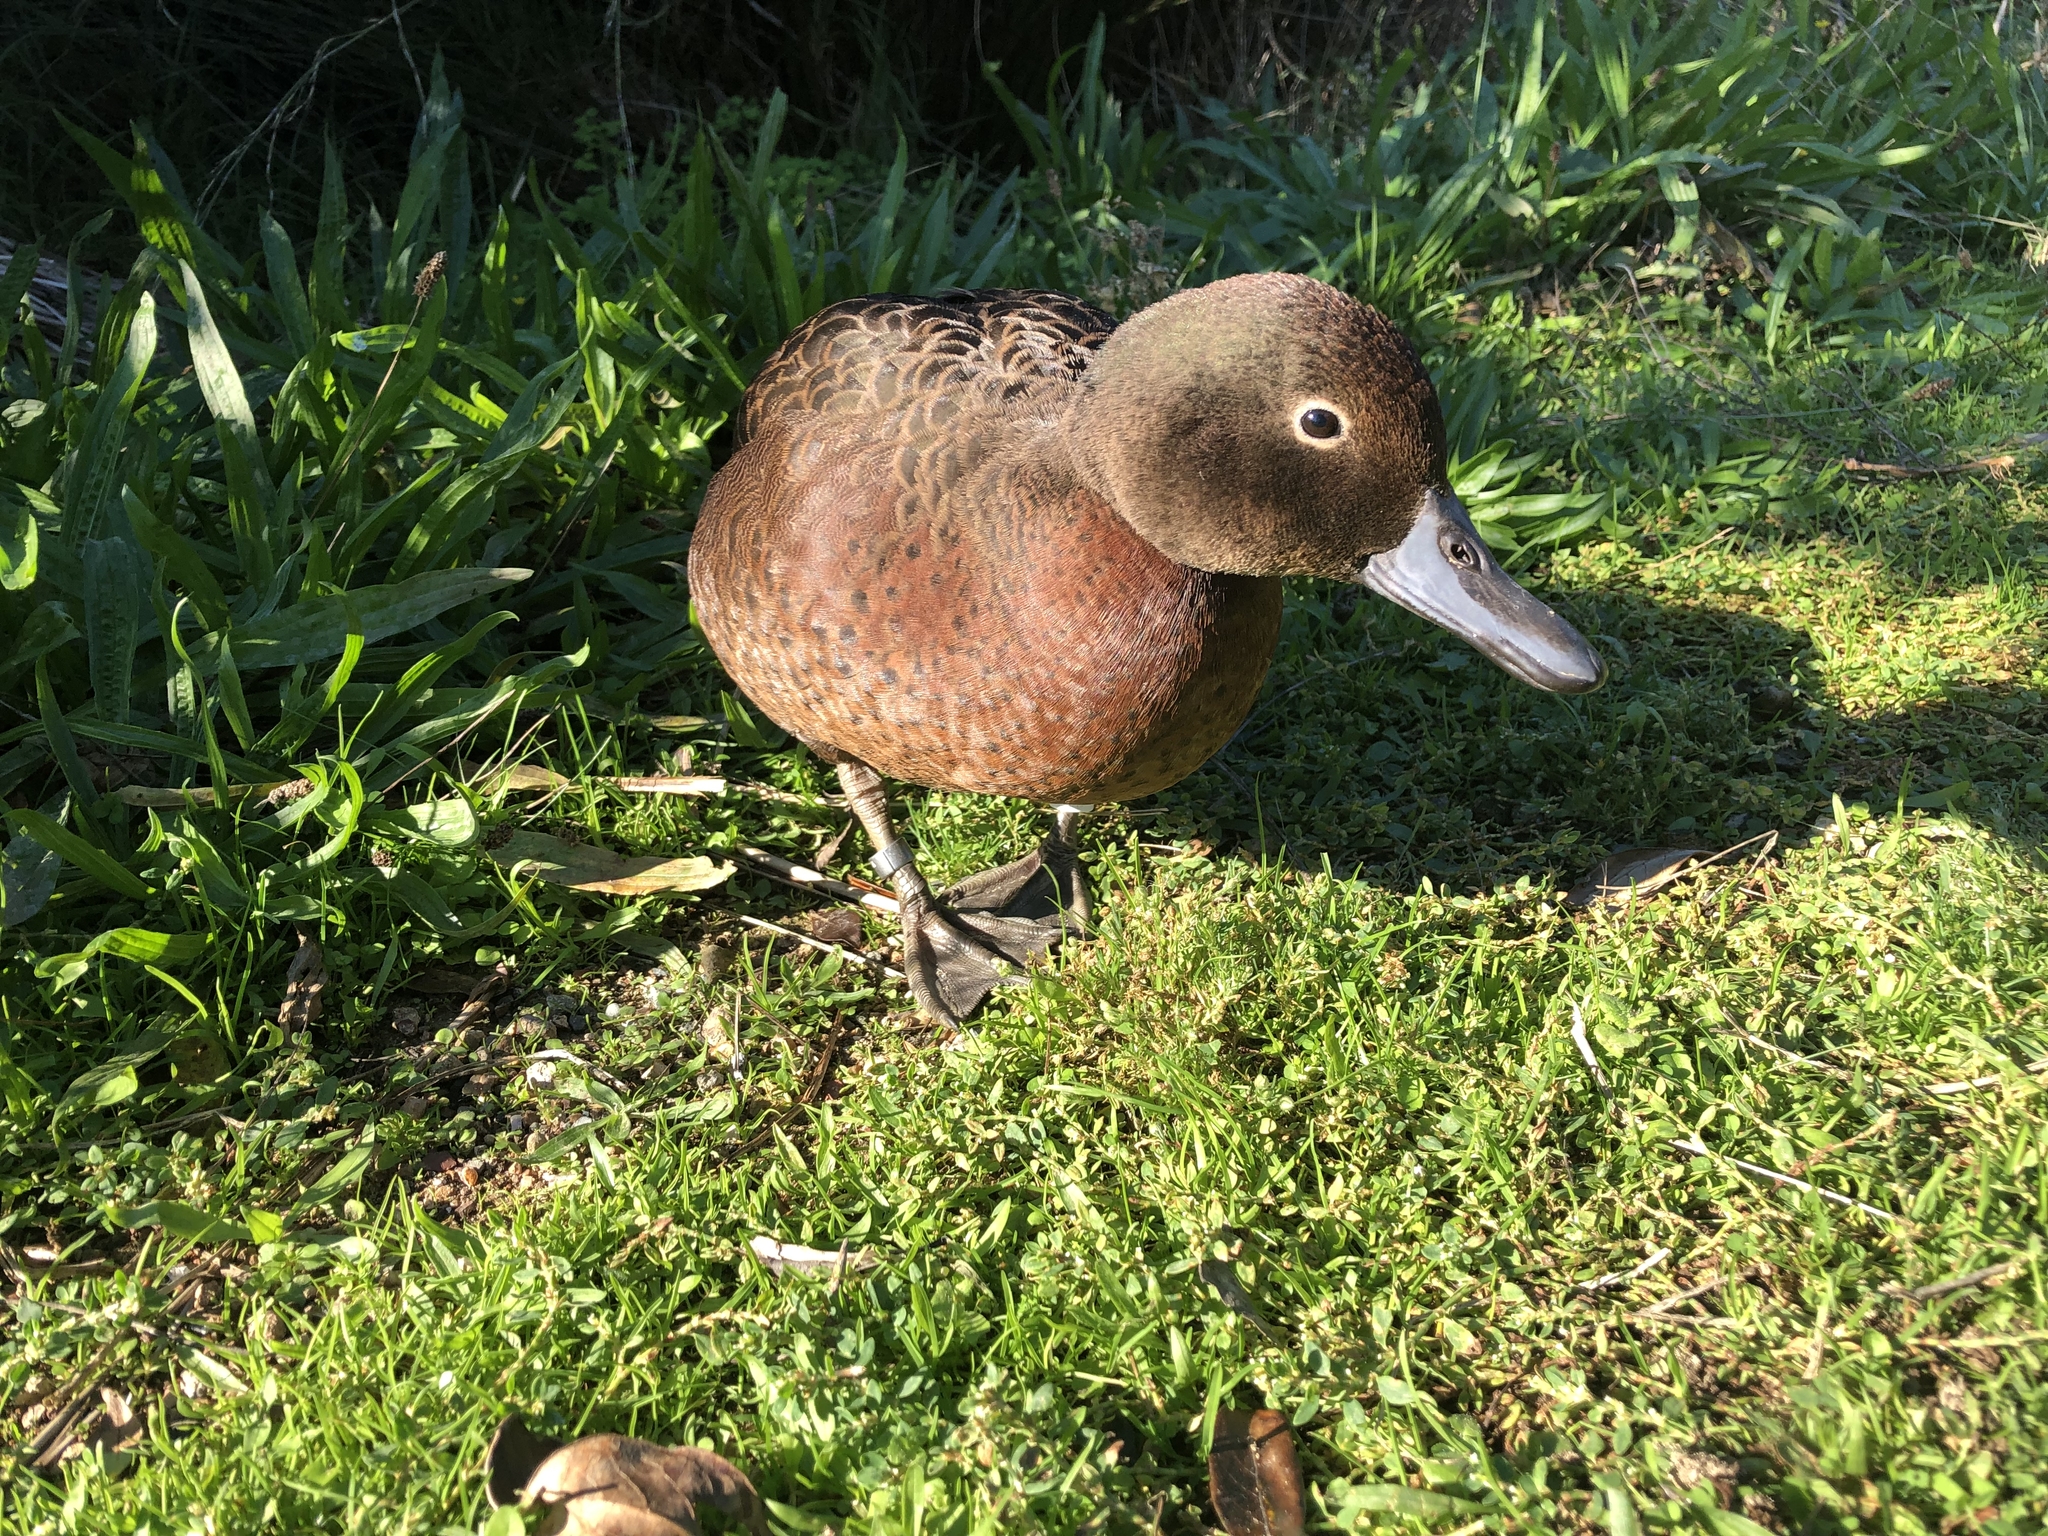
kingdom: Animalia
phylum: Chordata
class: Aves
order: Anseriformes
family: Anatidae
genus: Anas
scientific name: Anas chlorotis
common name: Brown teal
